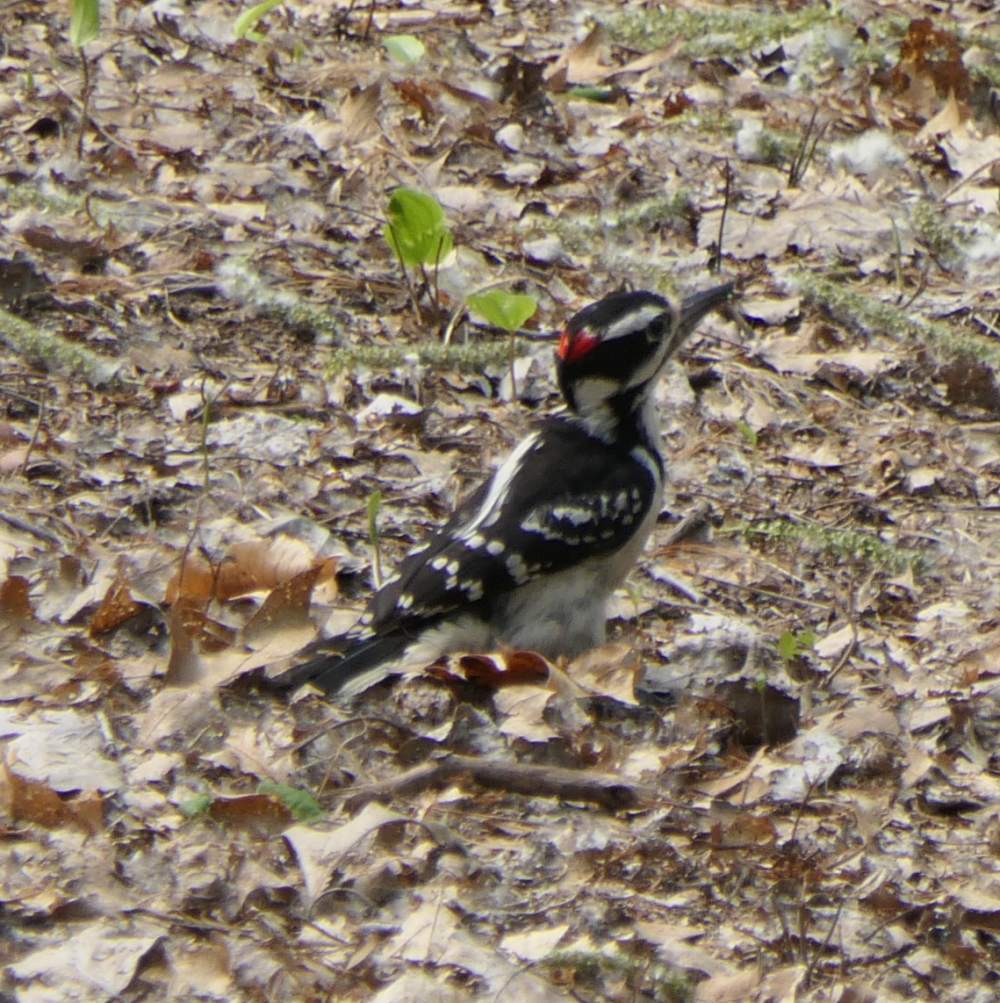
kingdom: Animalia
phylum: Chordata
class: Aves
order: Piciformes
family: Picidae
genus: Leuconotopicus
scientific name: Leuconotopicus villosus
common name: Hairy woodpecker
